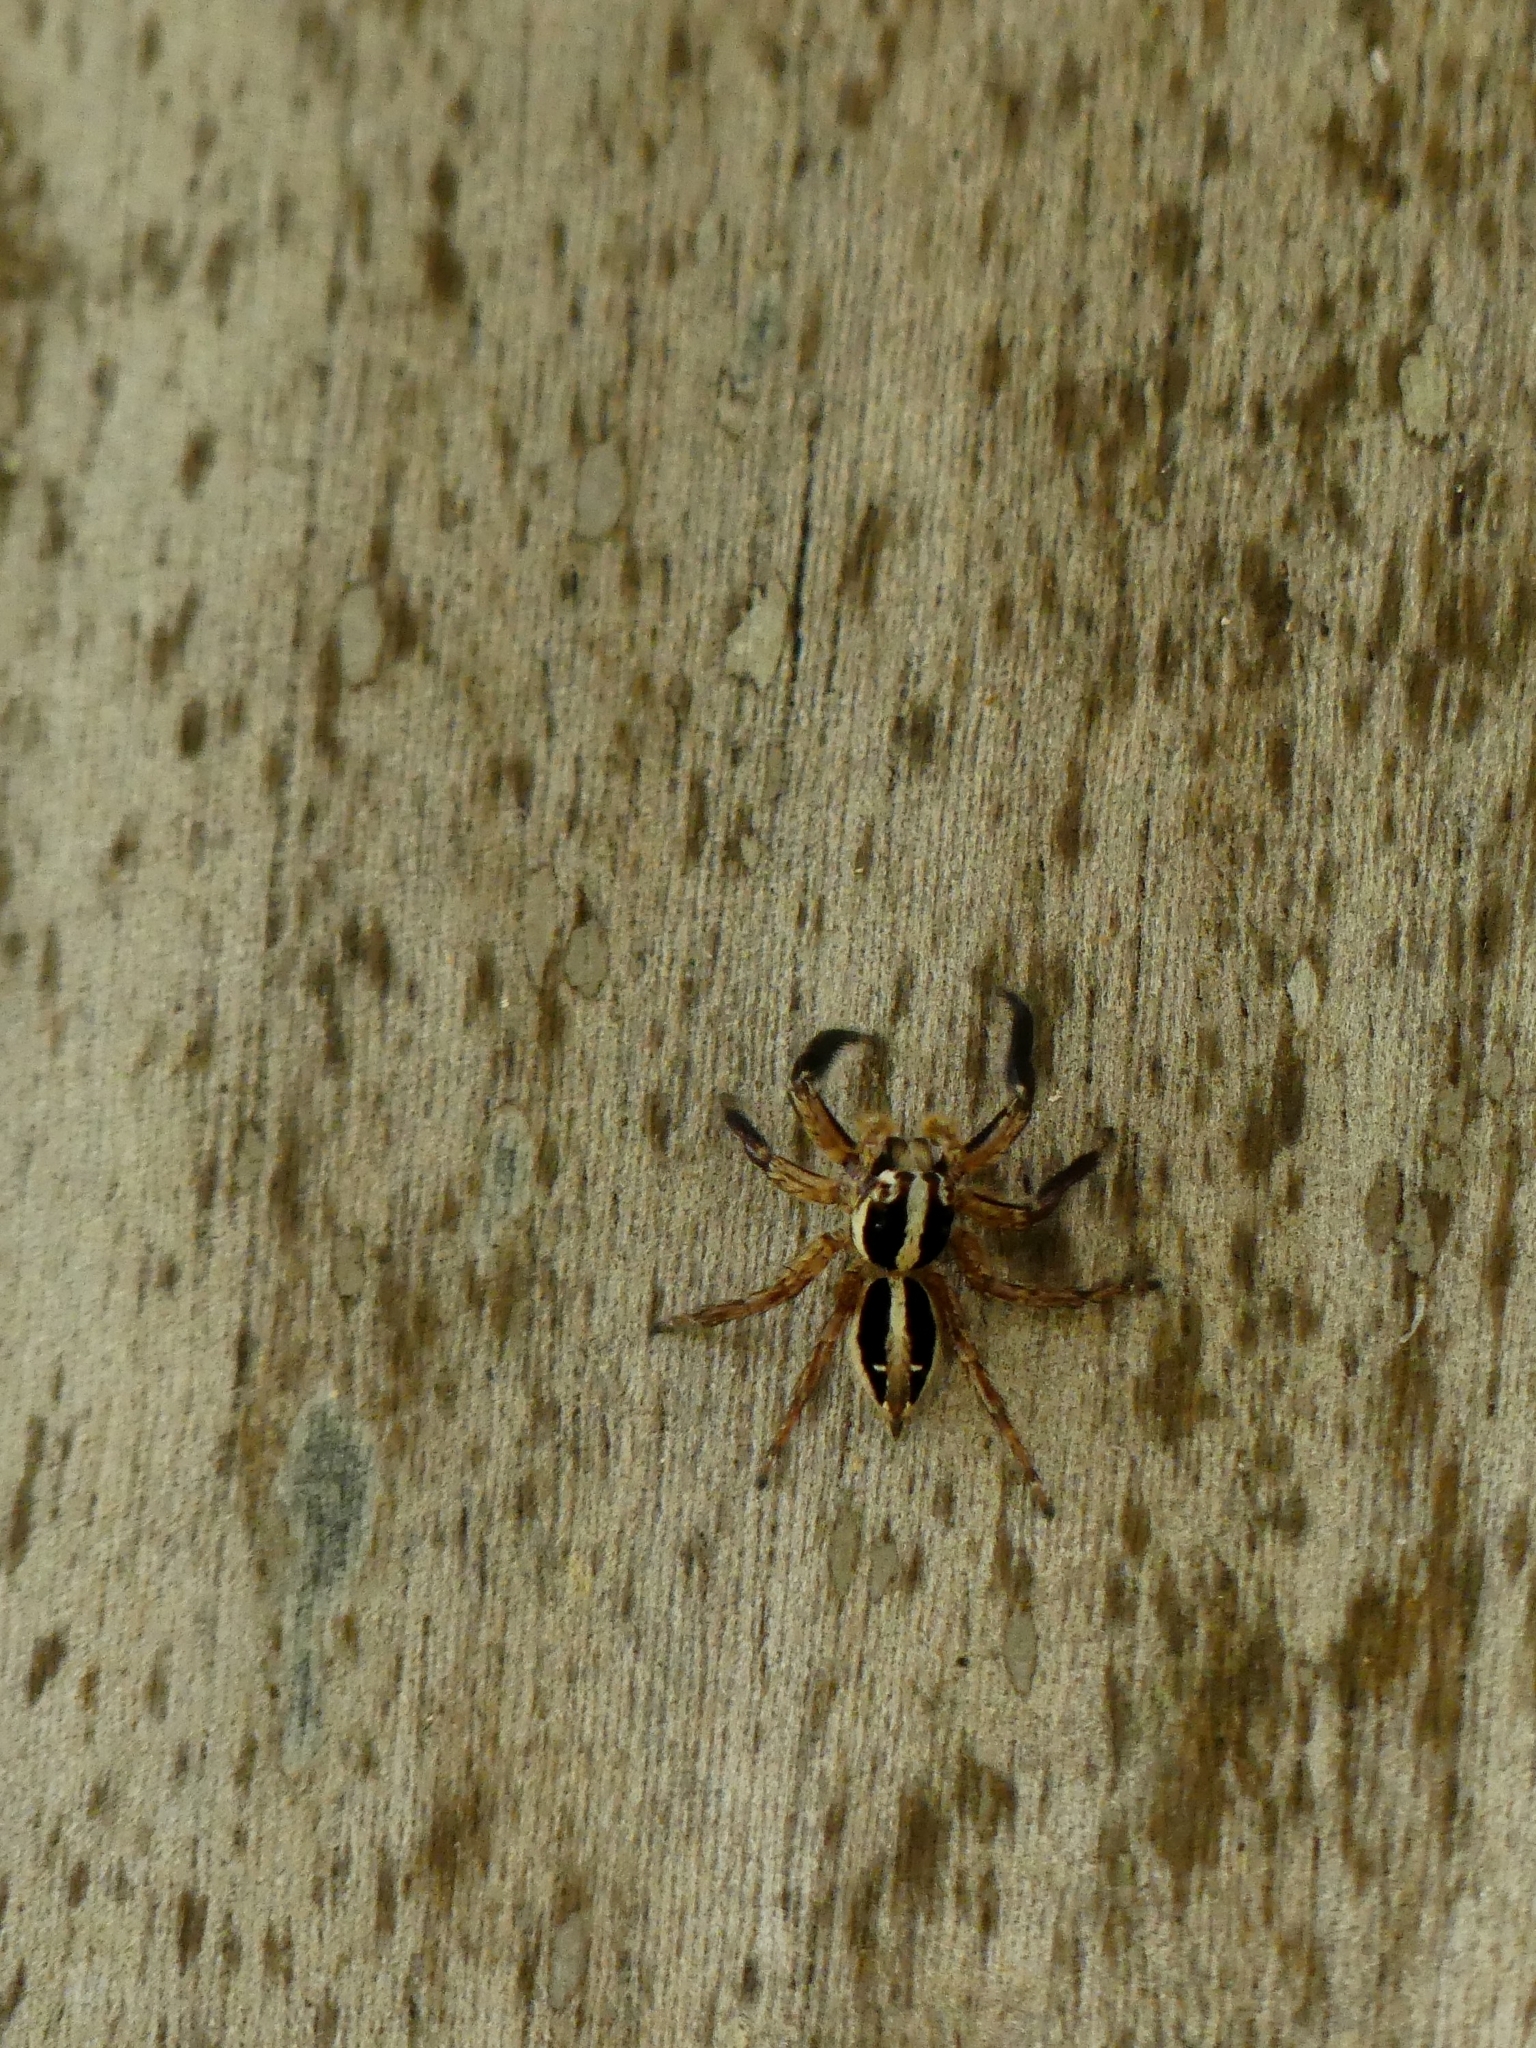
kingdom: Animalia
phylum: Arthropoda
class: Arachnida
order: Araneae
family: Salticidae
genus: Plexippus
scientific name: Plexippus paykulli
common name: Pantropical jumper
